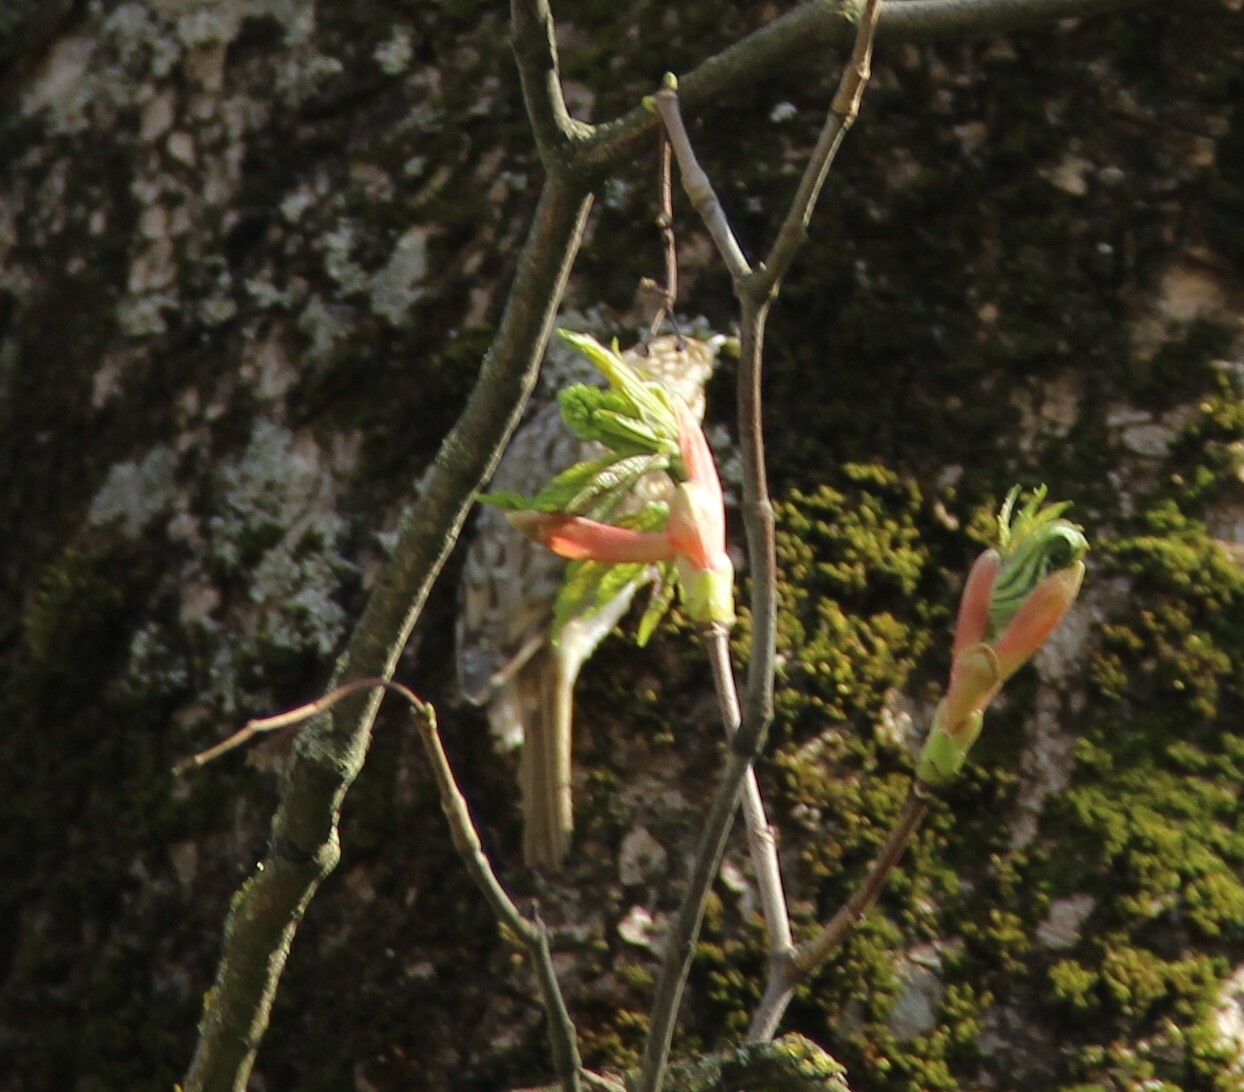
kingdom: Animalia
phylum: Chordata
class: Aves
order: Passeriformes
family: Certhiidae
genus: Certhia
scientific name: Certhia familiaris
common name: Eurasian treecreeper
